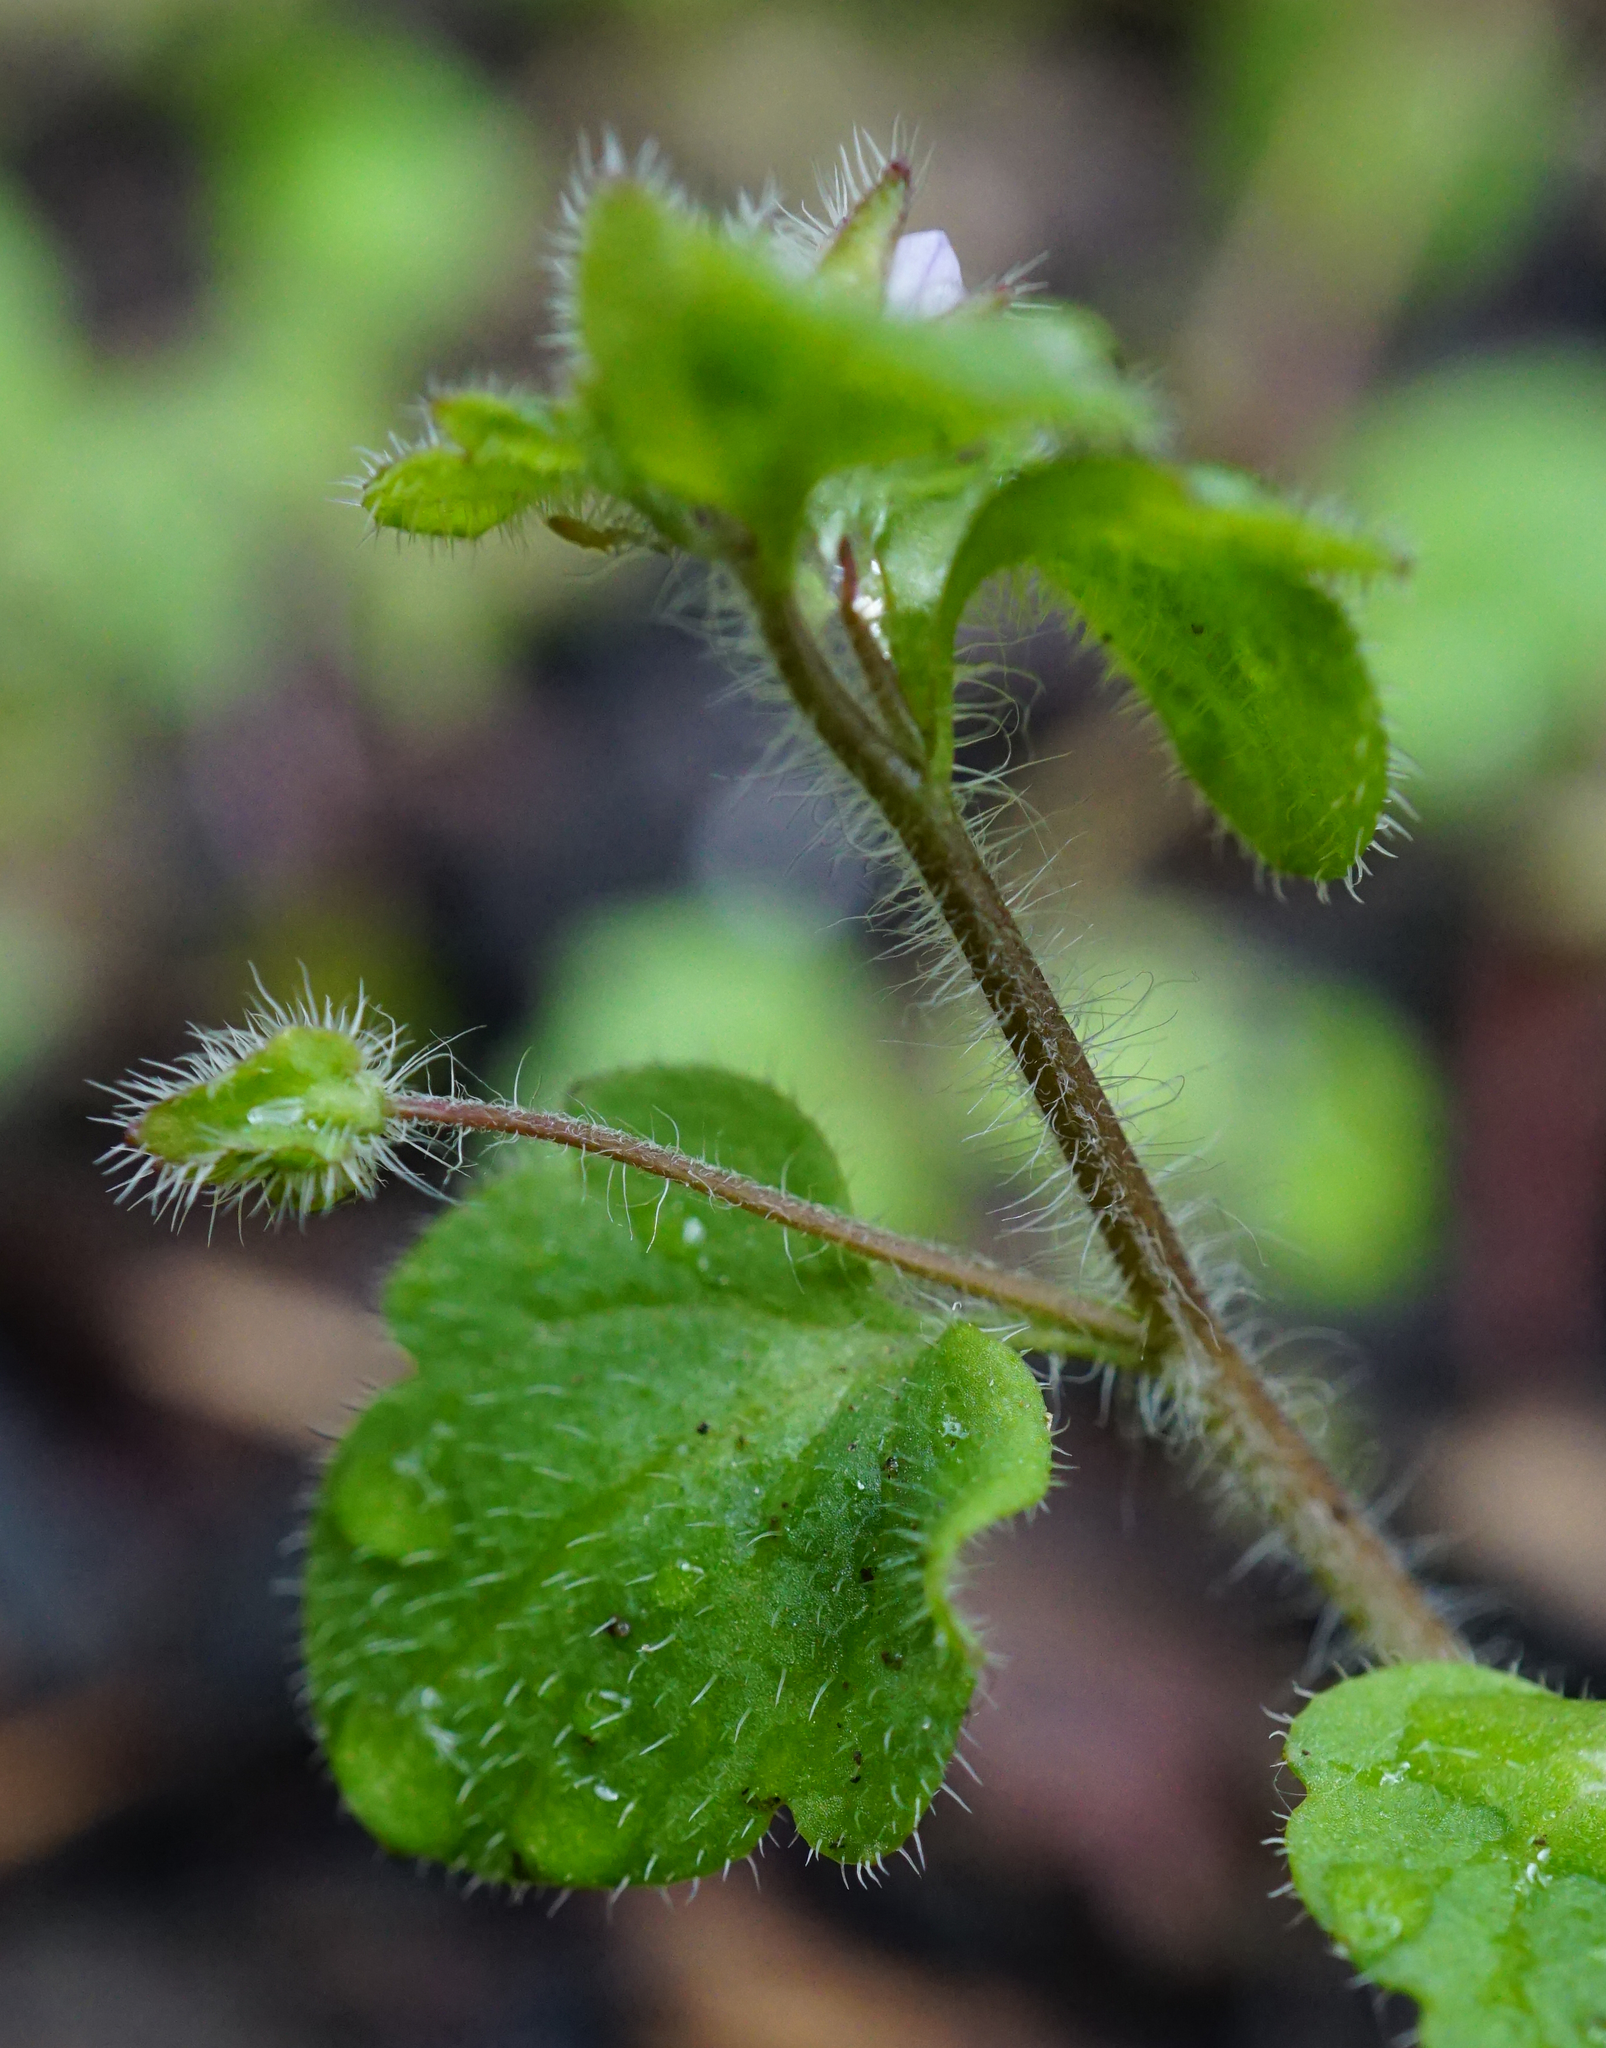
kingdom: Plantae
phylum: Tracheophyta
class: Magnoliopsida
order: Lamiales
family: Plantaginaceae
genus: Veronica
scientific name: Veronica sublobata
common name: False ivy-leaved speedwell
